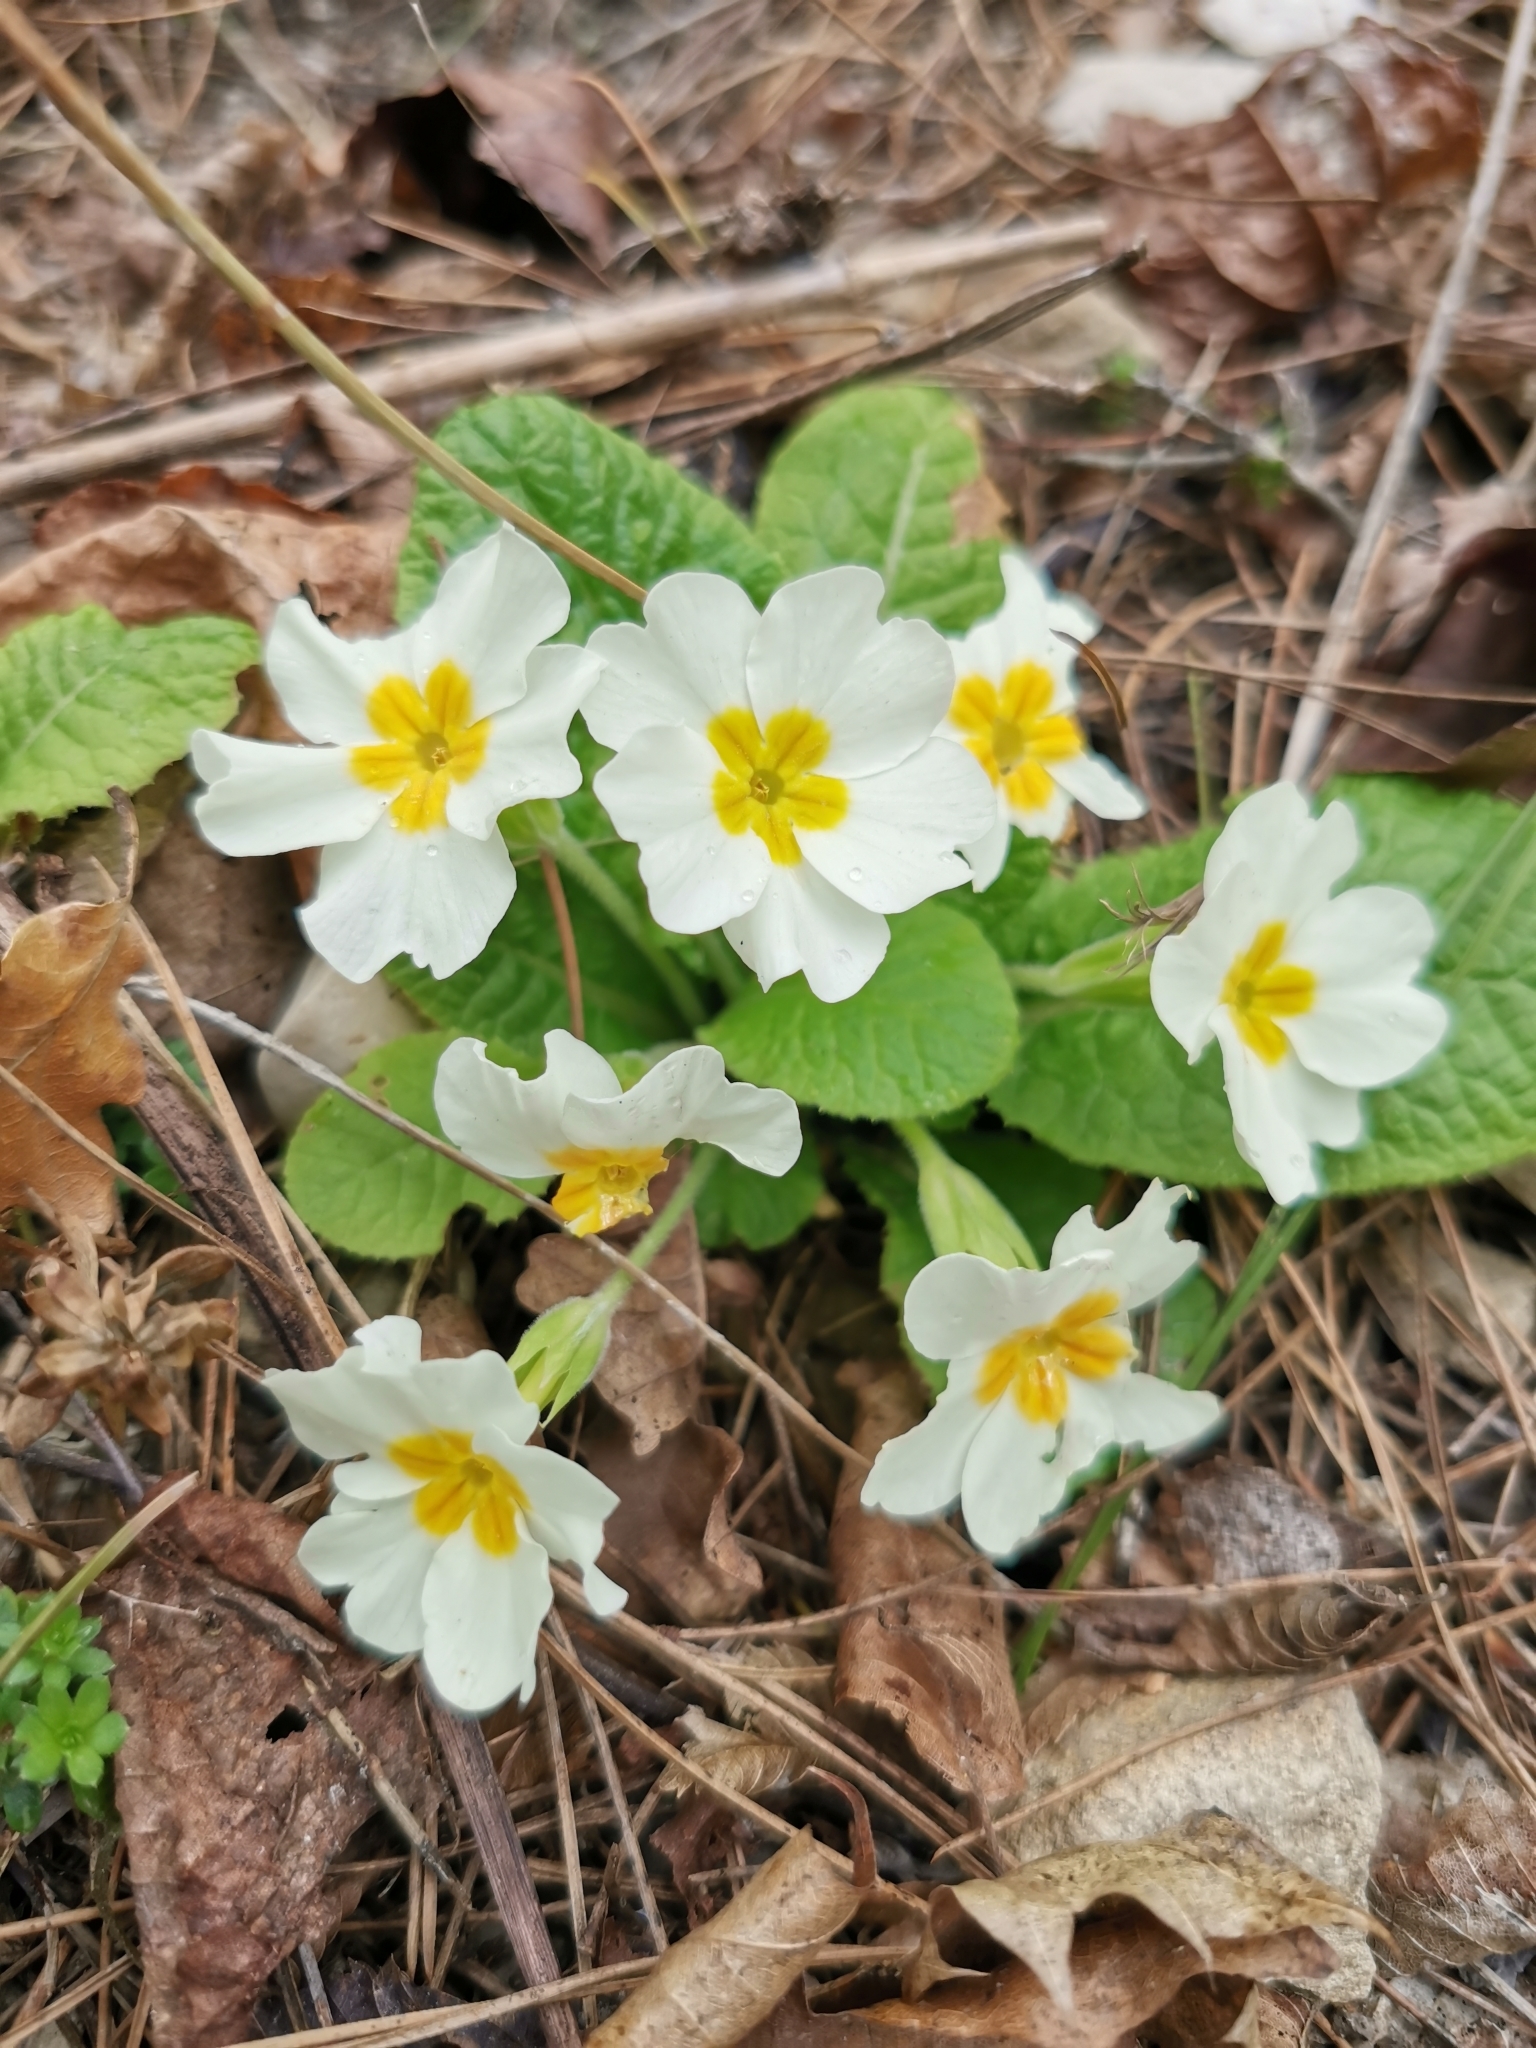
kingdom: Plantae
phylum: Tracheophyta
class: Magnoliopsida
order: Ericales
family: Primulaceae
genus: Primula
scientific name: Primula vulgaris
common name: Primrose
